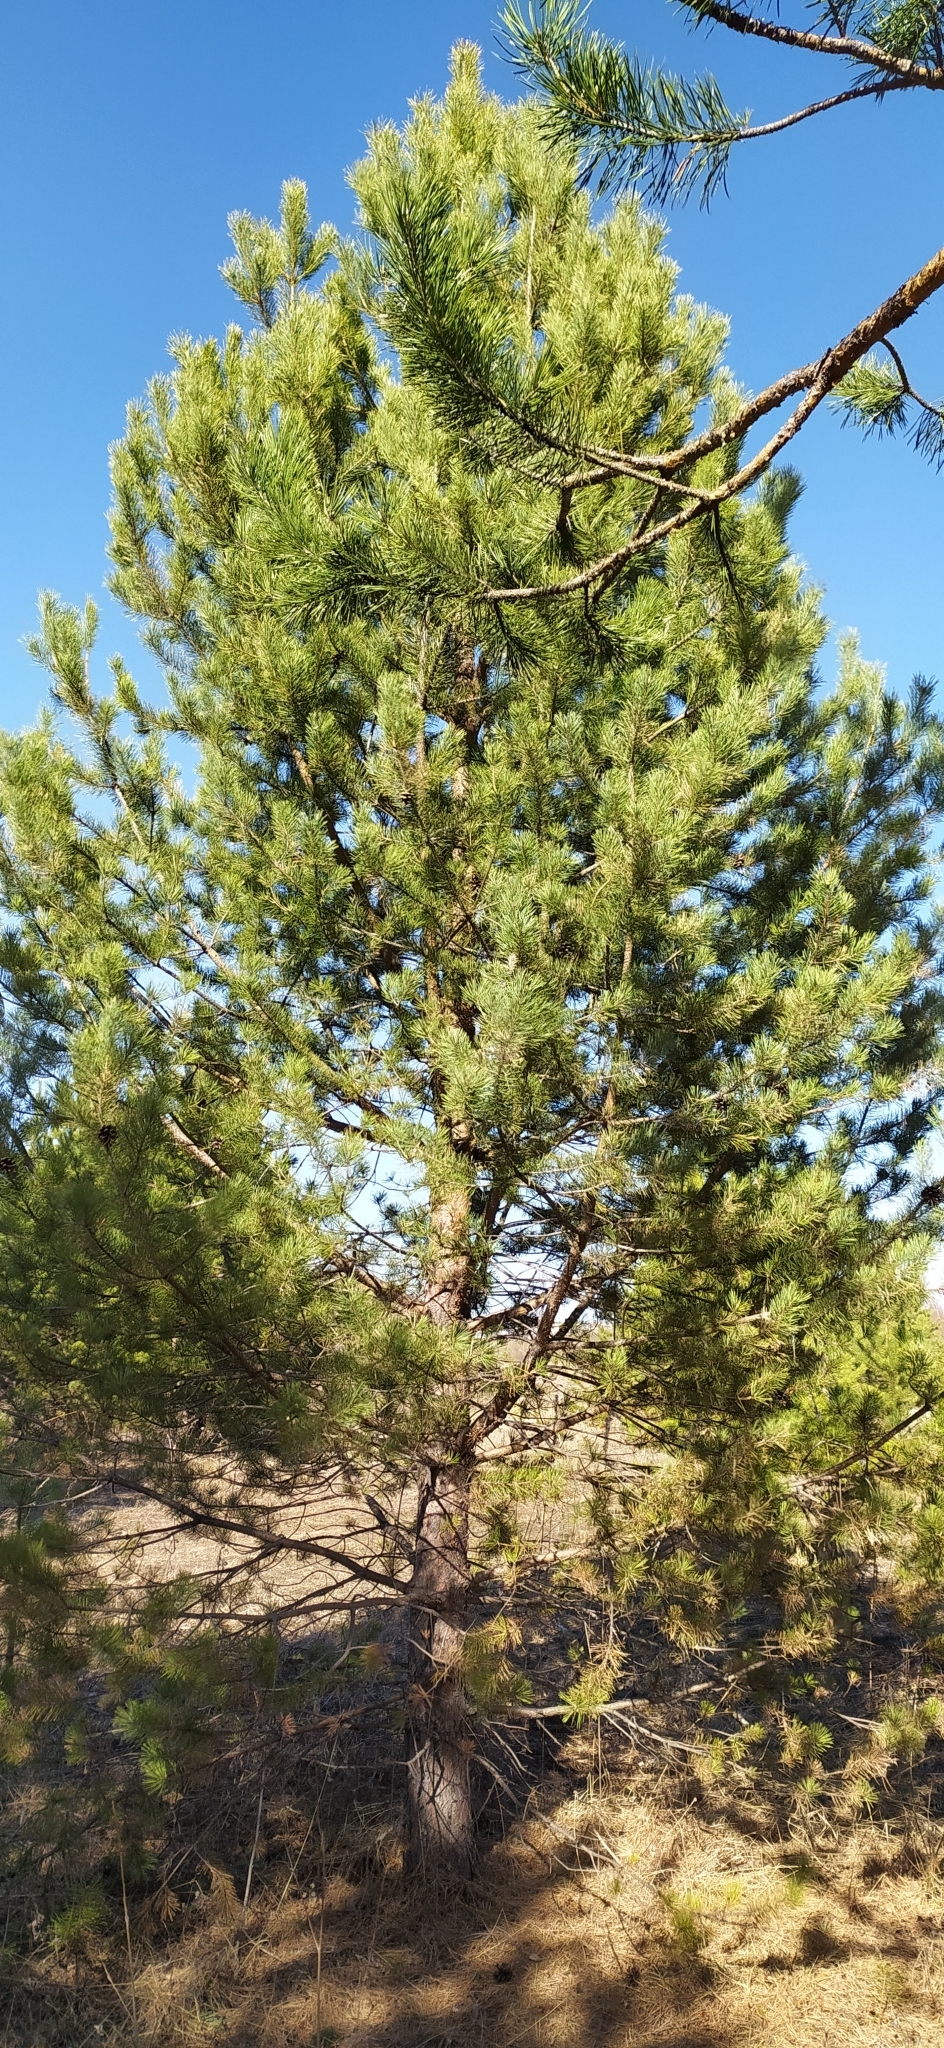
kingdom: Plantae
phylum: Tracheophyta
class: Pinopsida
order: Pinales
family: Pinaceae
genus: Pinus
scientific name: Pinus sylvestris
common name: Scots pine
